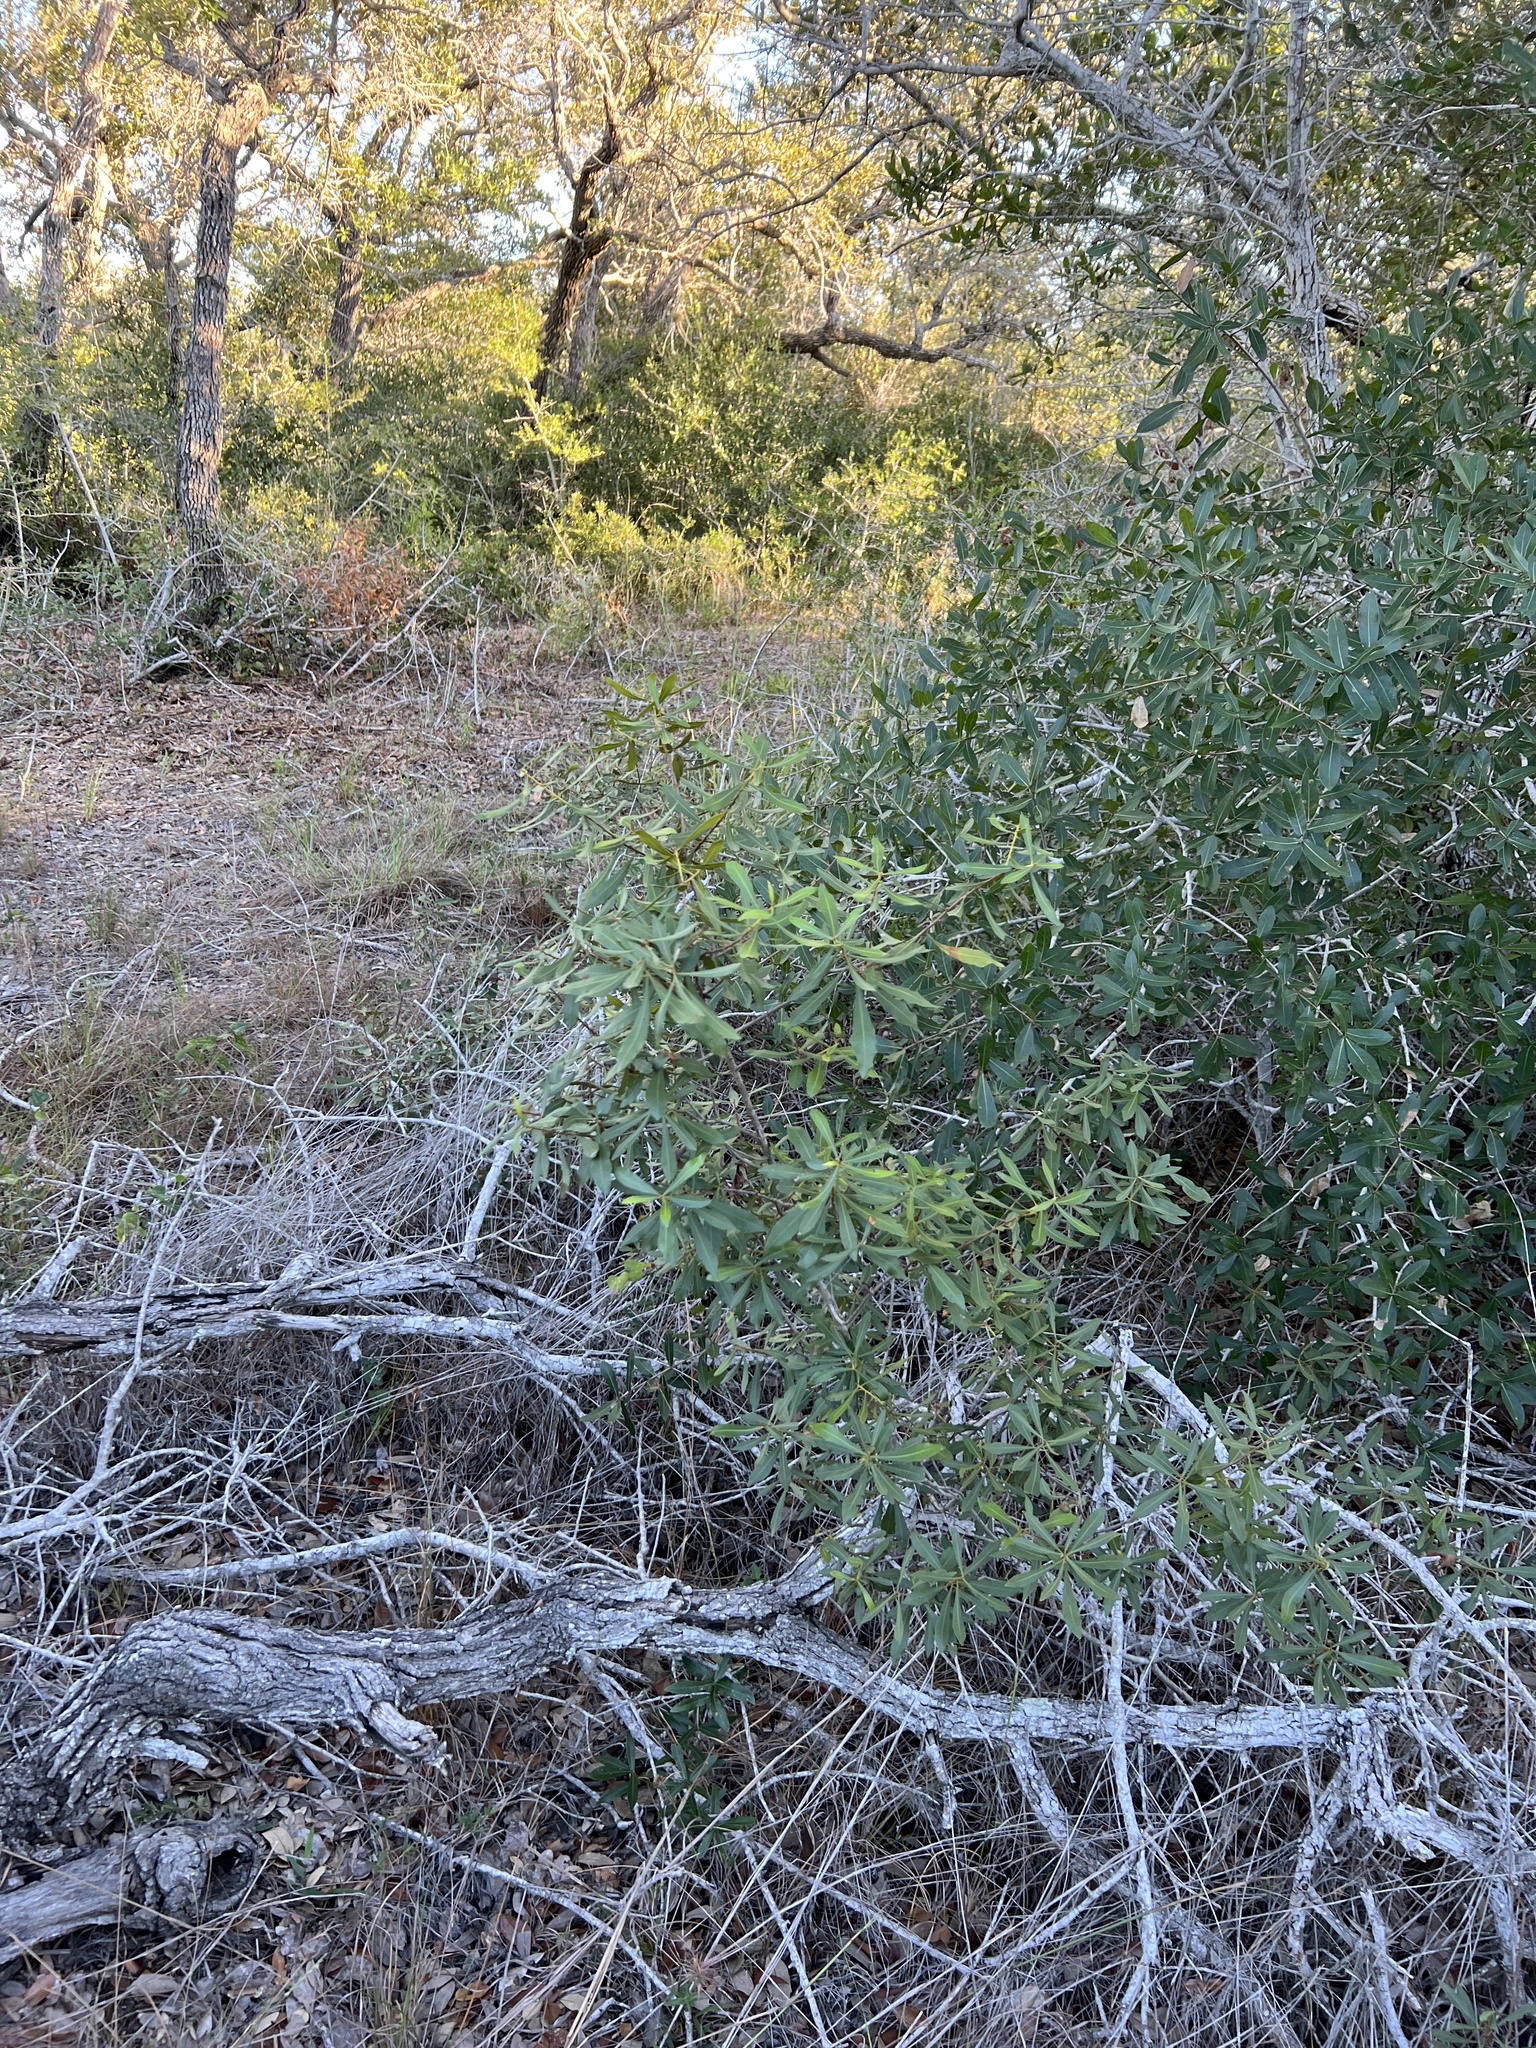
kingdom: Plantae
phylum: Tracheophyta
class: Magnoliopsida
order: Fagales
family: Myricaceae
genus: Morella
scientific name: Morella cerifera
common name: Wax myrtle
